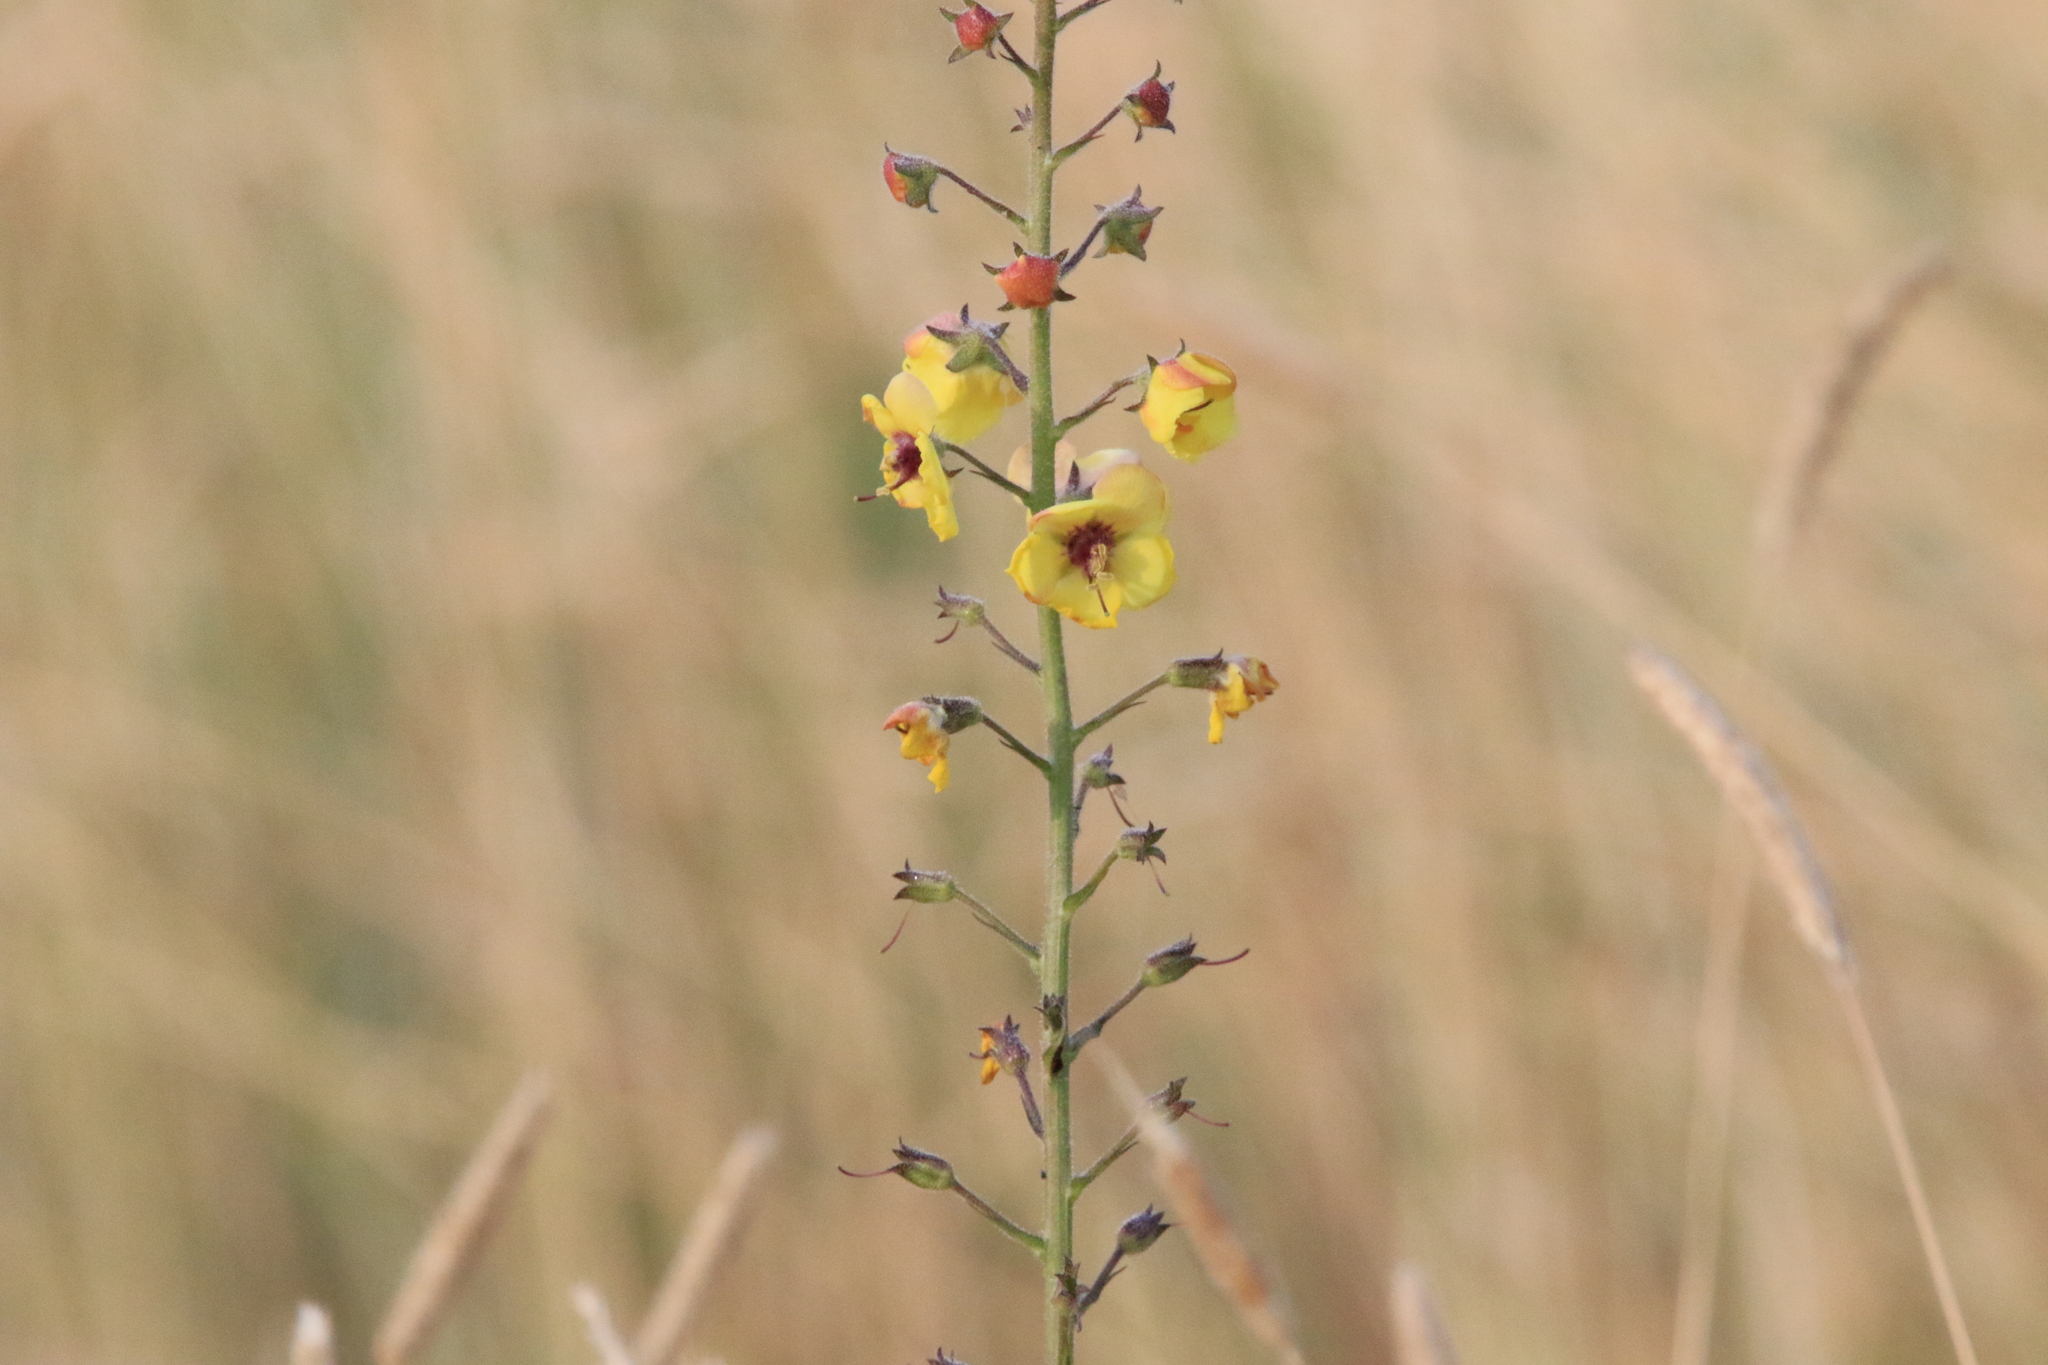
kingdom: Plantae
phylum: Tracheophyta
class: Magnoliopsida
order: Lamiales
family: Scrophulariaceae
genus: Verbascum
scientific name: Verbascum blattaria
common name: Moth mullein
